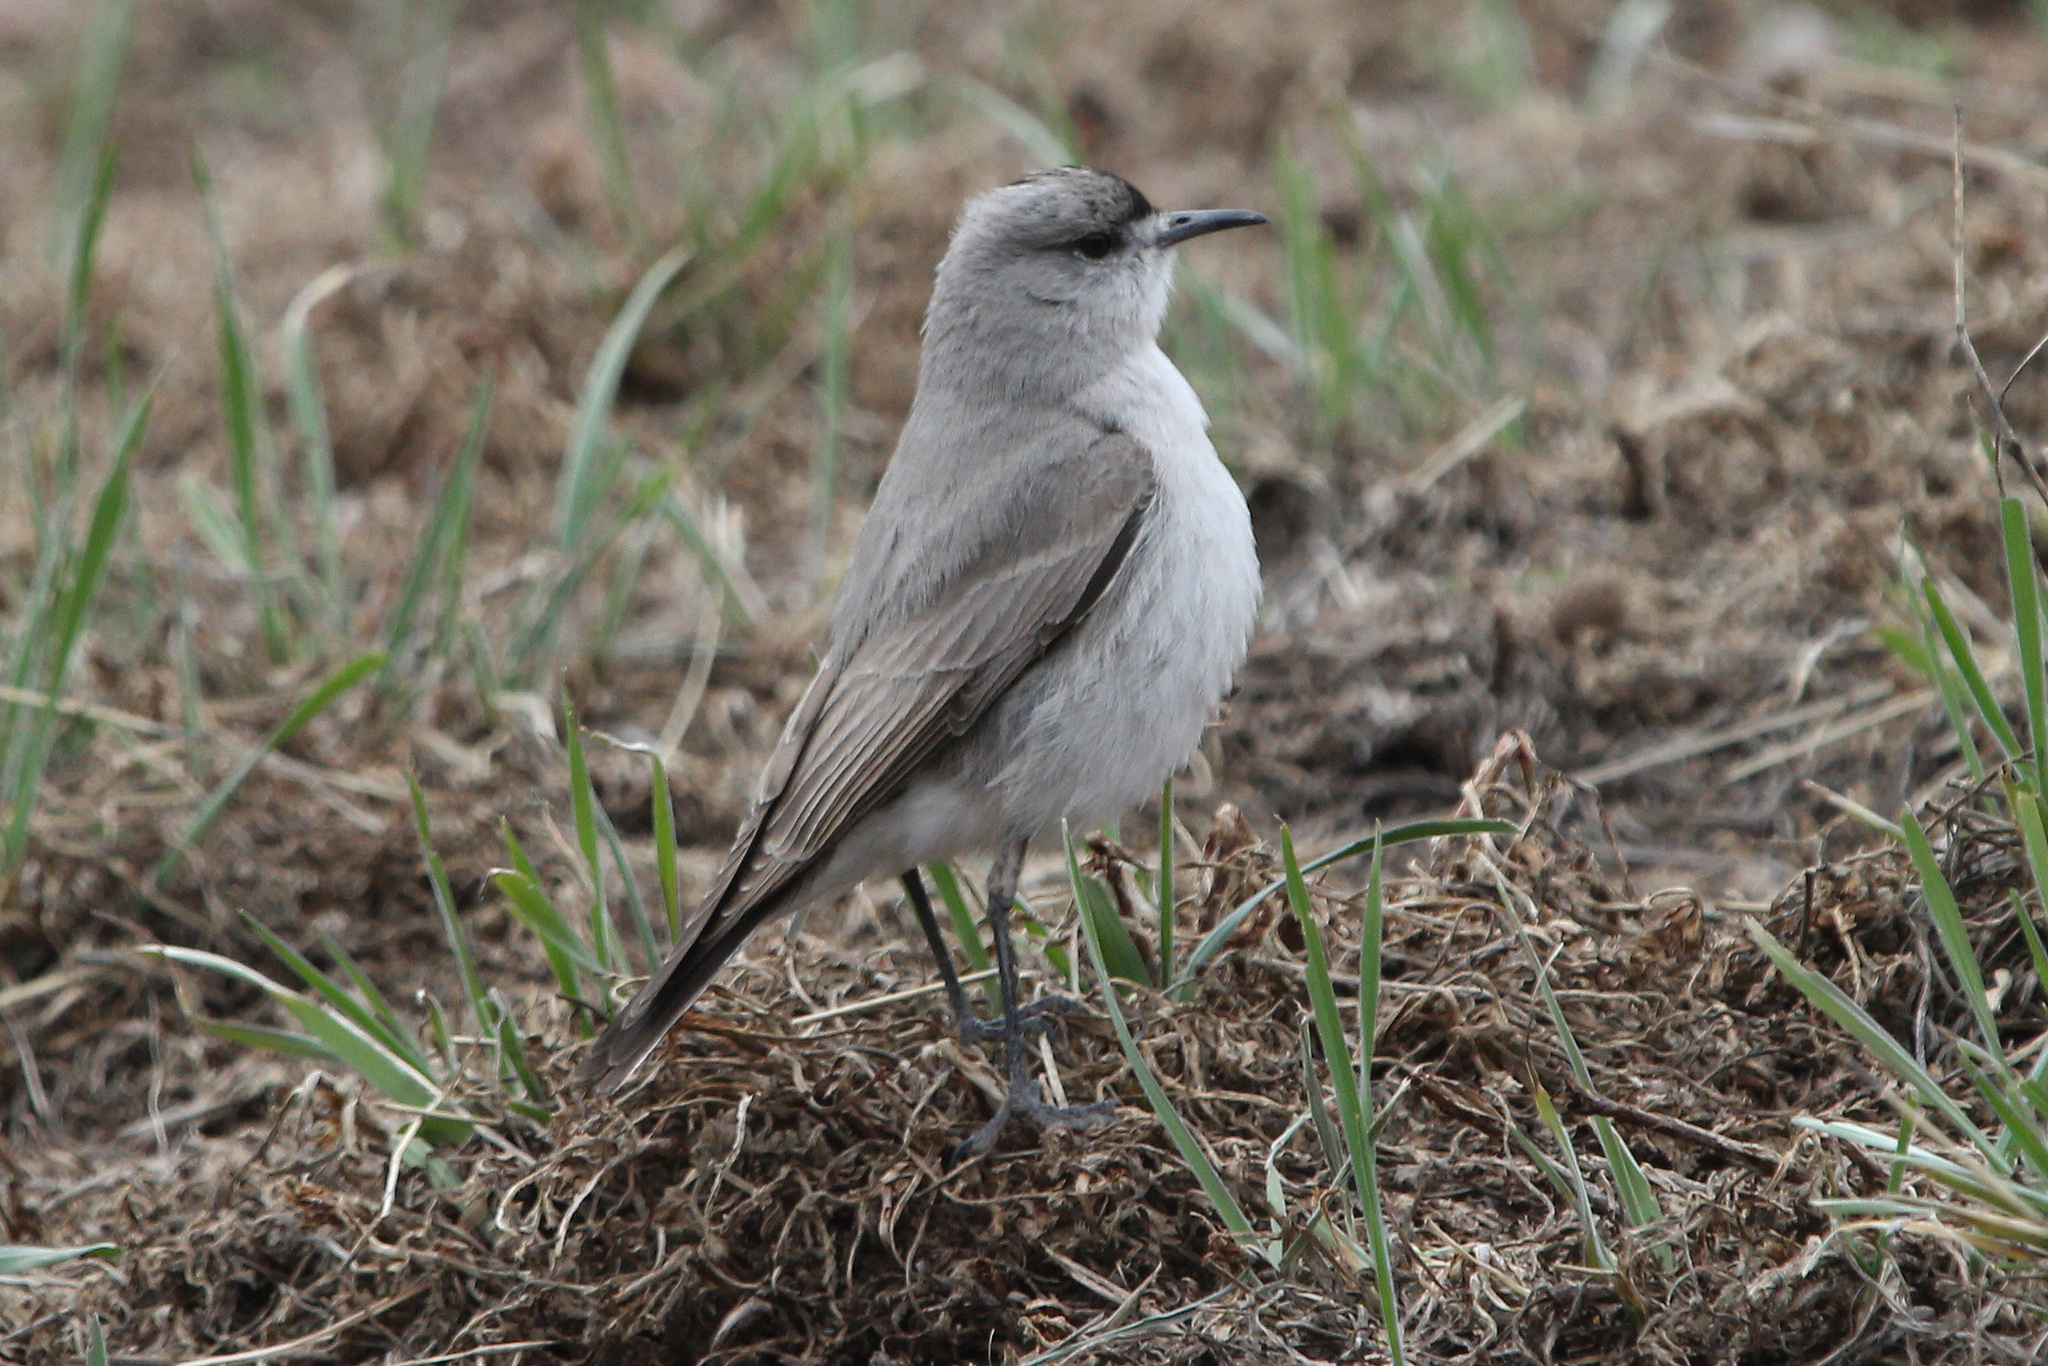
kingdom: Animalia
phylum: Chordata
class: Aves
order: Passeriformes
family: Tyrannidae
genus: Muscisaxicola
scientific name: Muscisaxicola frontalis
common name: Black-fronted ground tyrant
